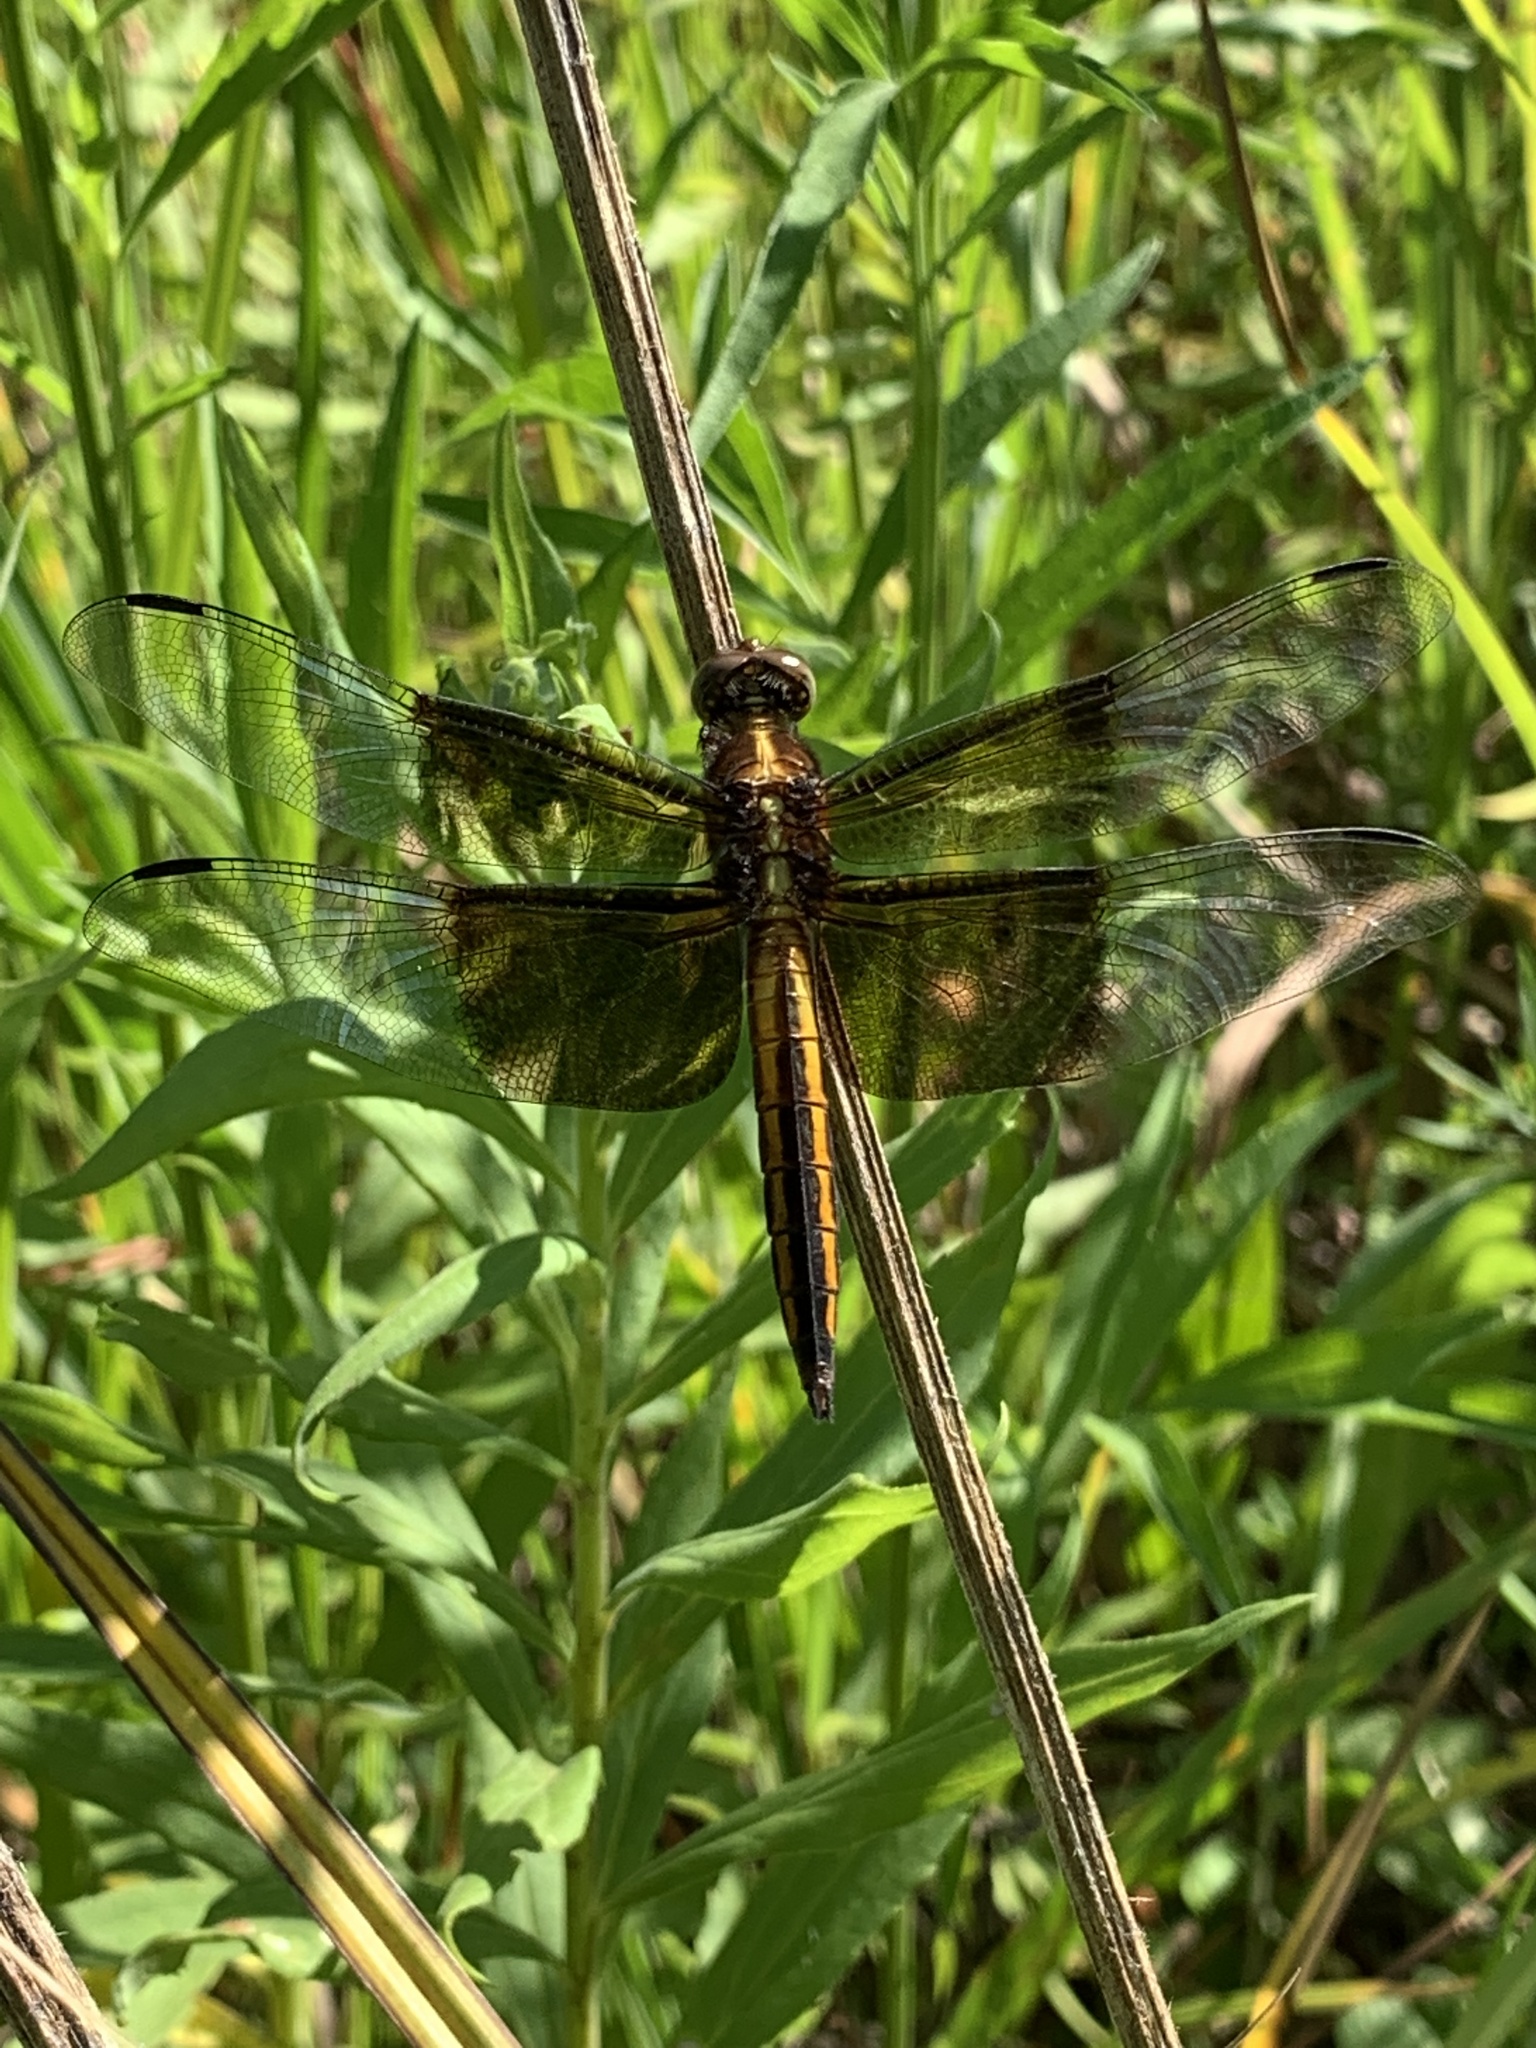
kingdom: Animalia
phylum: Arthropoda
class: Insecta
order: Odonata
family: Libellulidae
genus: Libellula
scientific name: Libellula luctuosa
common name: Widow skimmer
